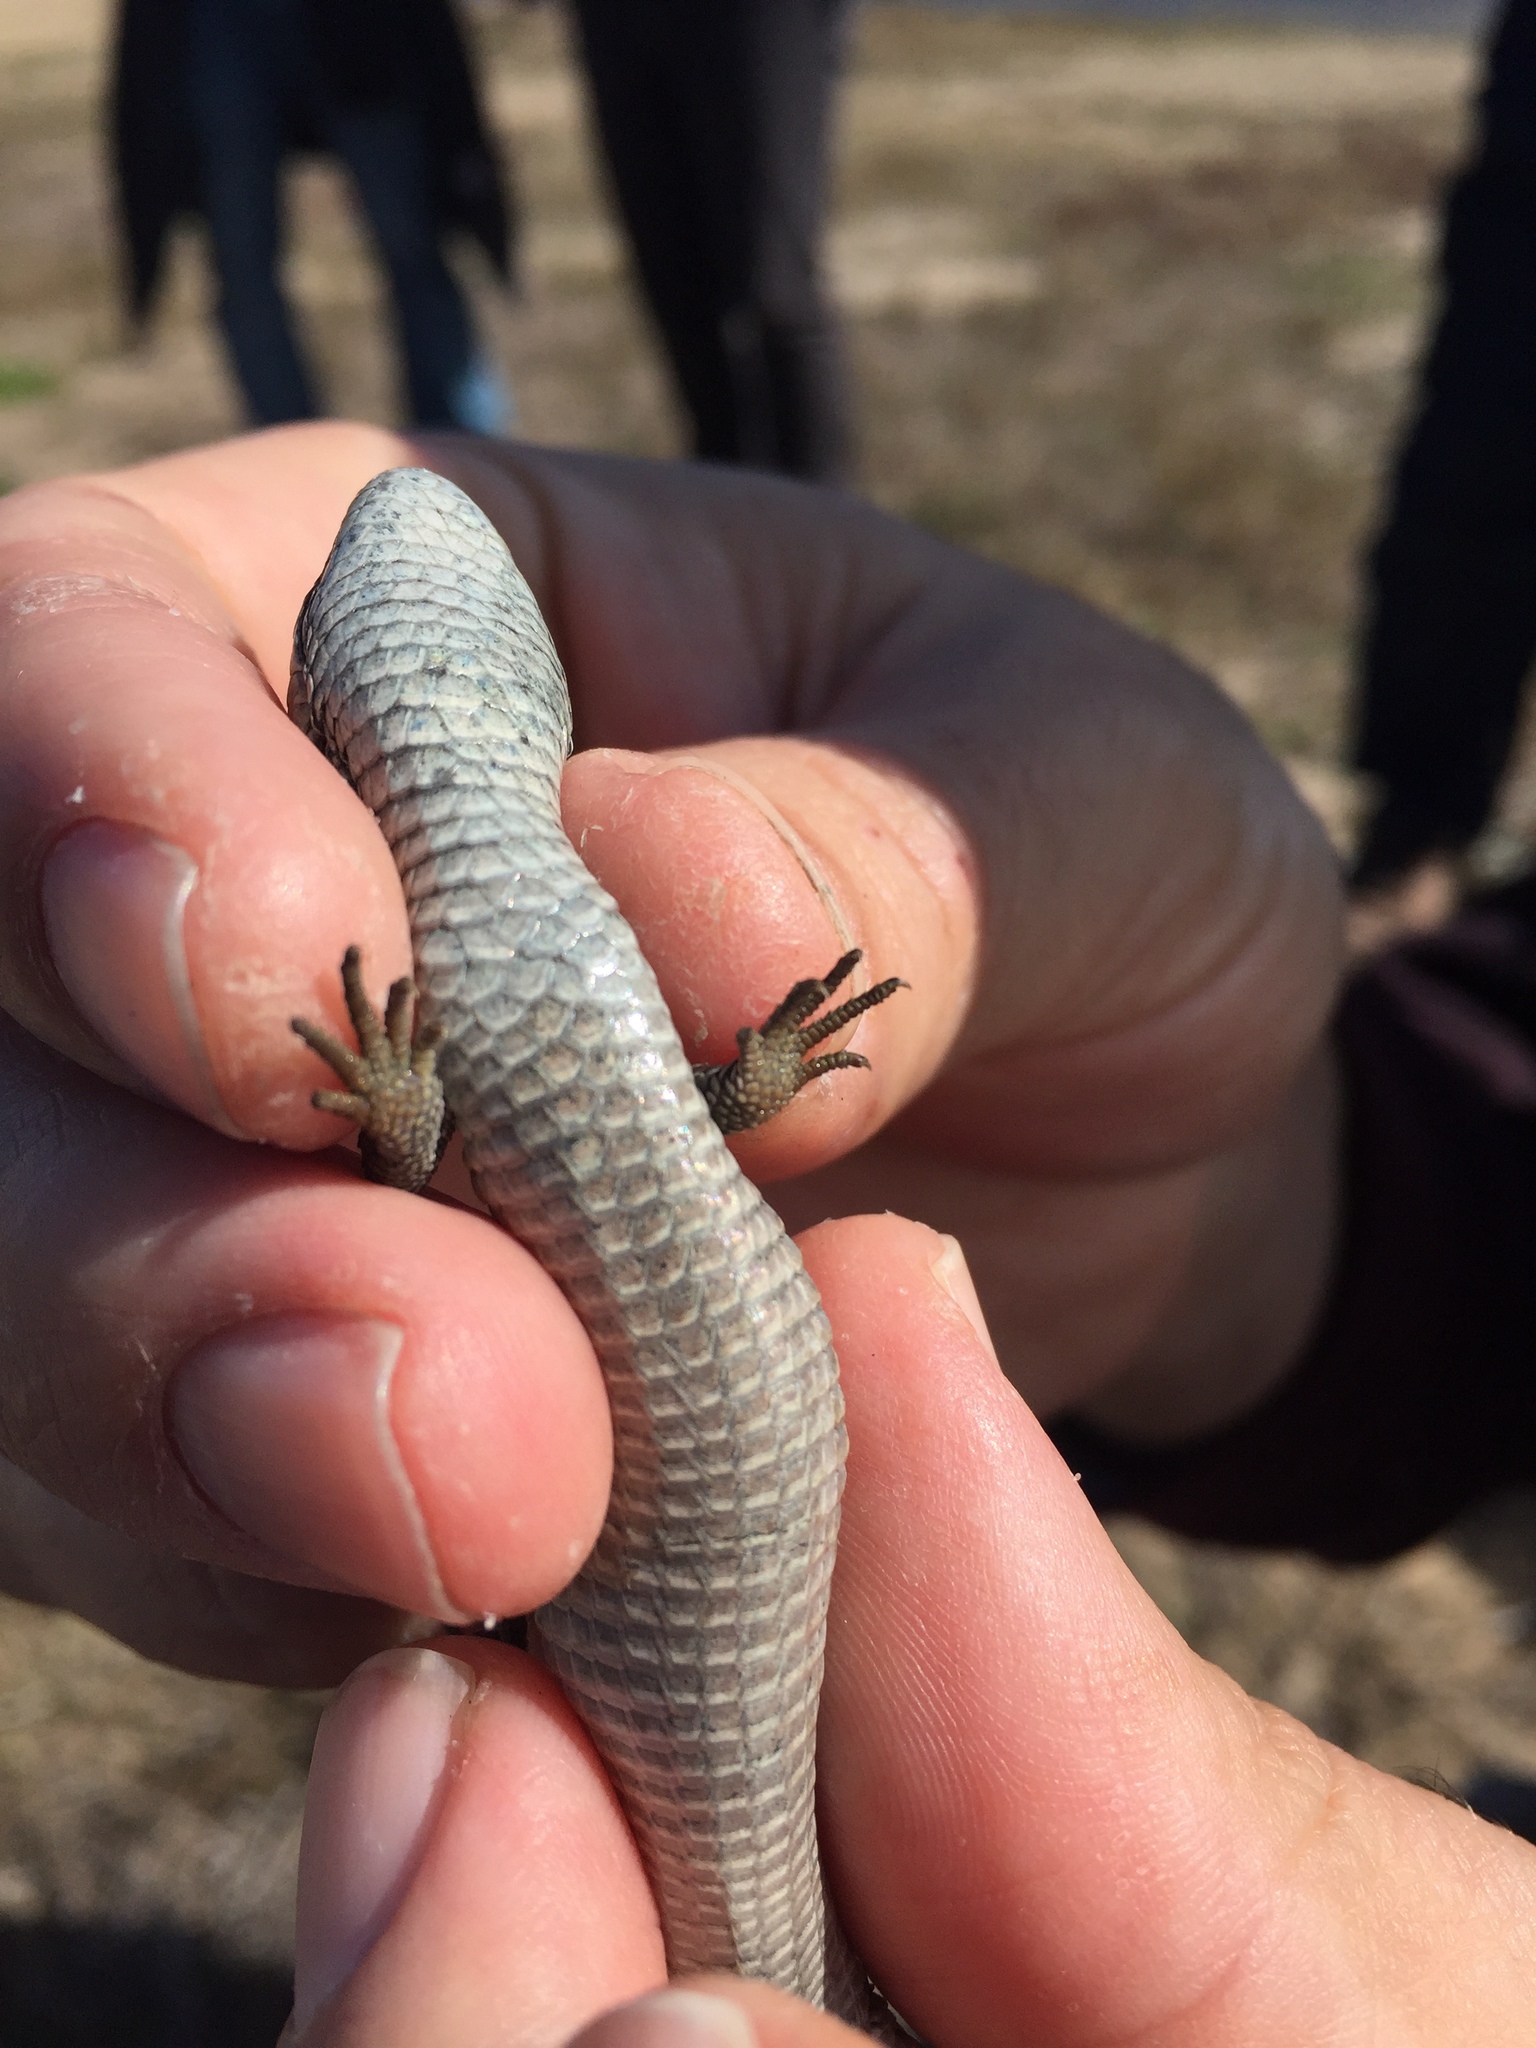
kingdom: Animalia
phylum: Chordata
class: Squamata
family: Anguidae
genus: Elgaria
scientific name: Elgaria coerulea
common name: Northern alligator lizard
